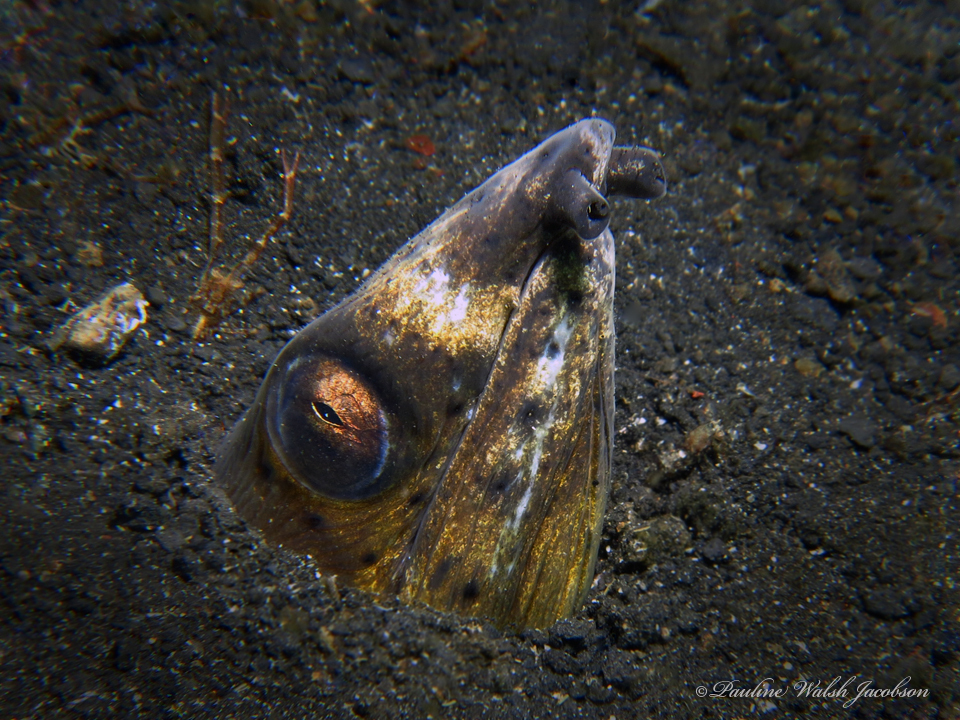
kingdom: Animalia
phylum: Chordata
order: Anguilliformes
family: Ophichthidae
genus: Ophichthus
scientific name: Ophichthus altipennis
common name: Highfin snake eel
